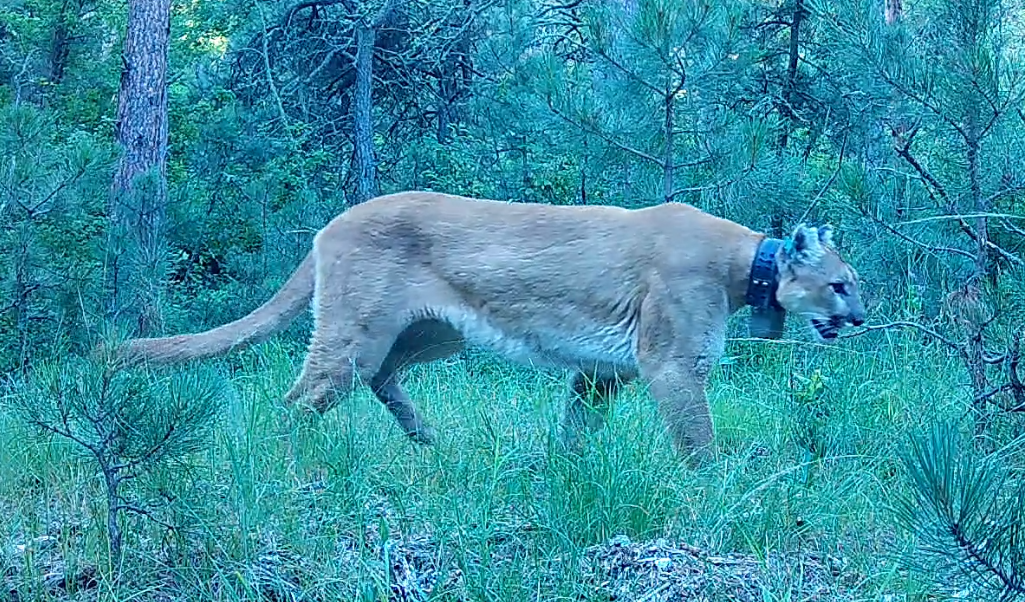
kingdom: Animalia
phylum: Chordata
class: Mammalia
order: Carnivora
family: Felidae
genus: Puma
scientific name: Puma concolor
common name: Puma
